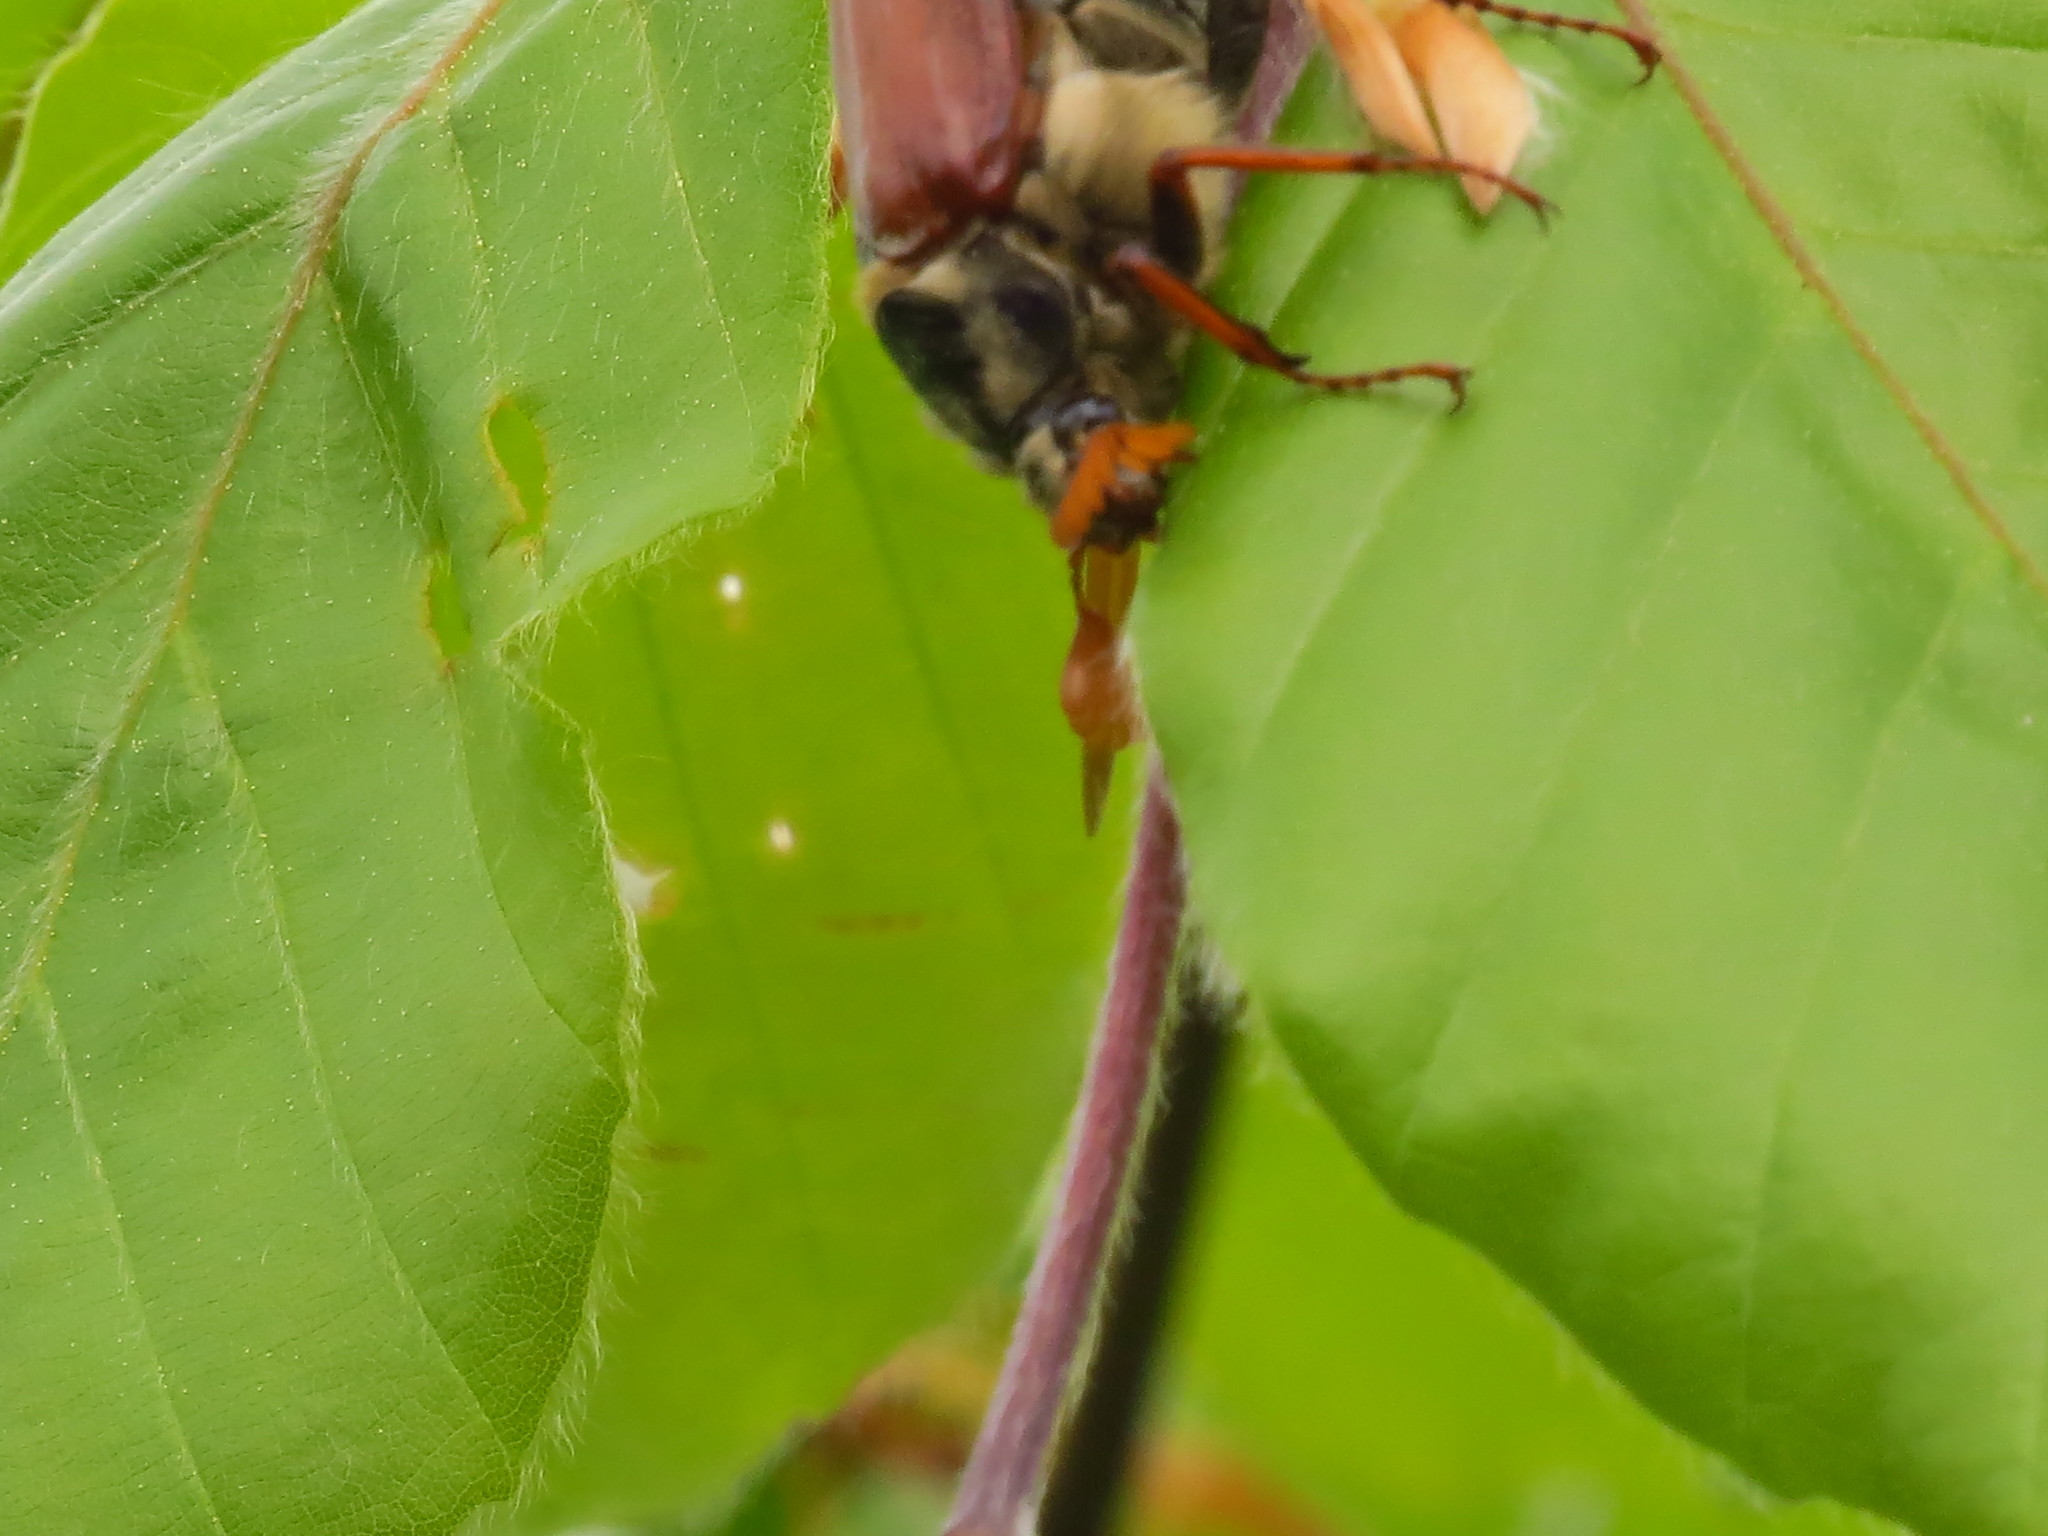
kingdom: Animalia
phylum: Arthropoda
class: Insecta
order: Coleoptera
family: Scarabaeidae
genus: Melolontha
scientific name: Melolontha melolontha
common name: Cockchafer maybeetle
